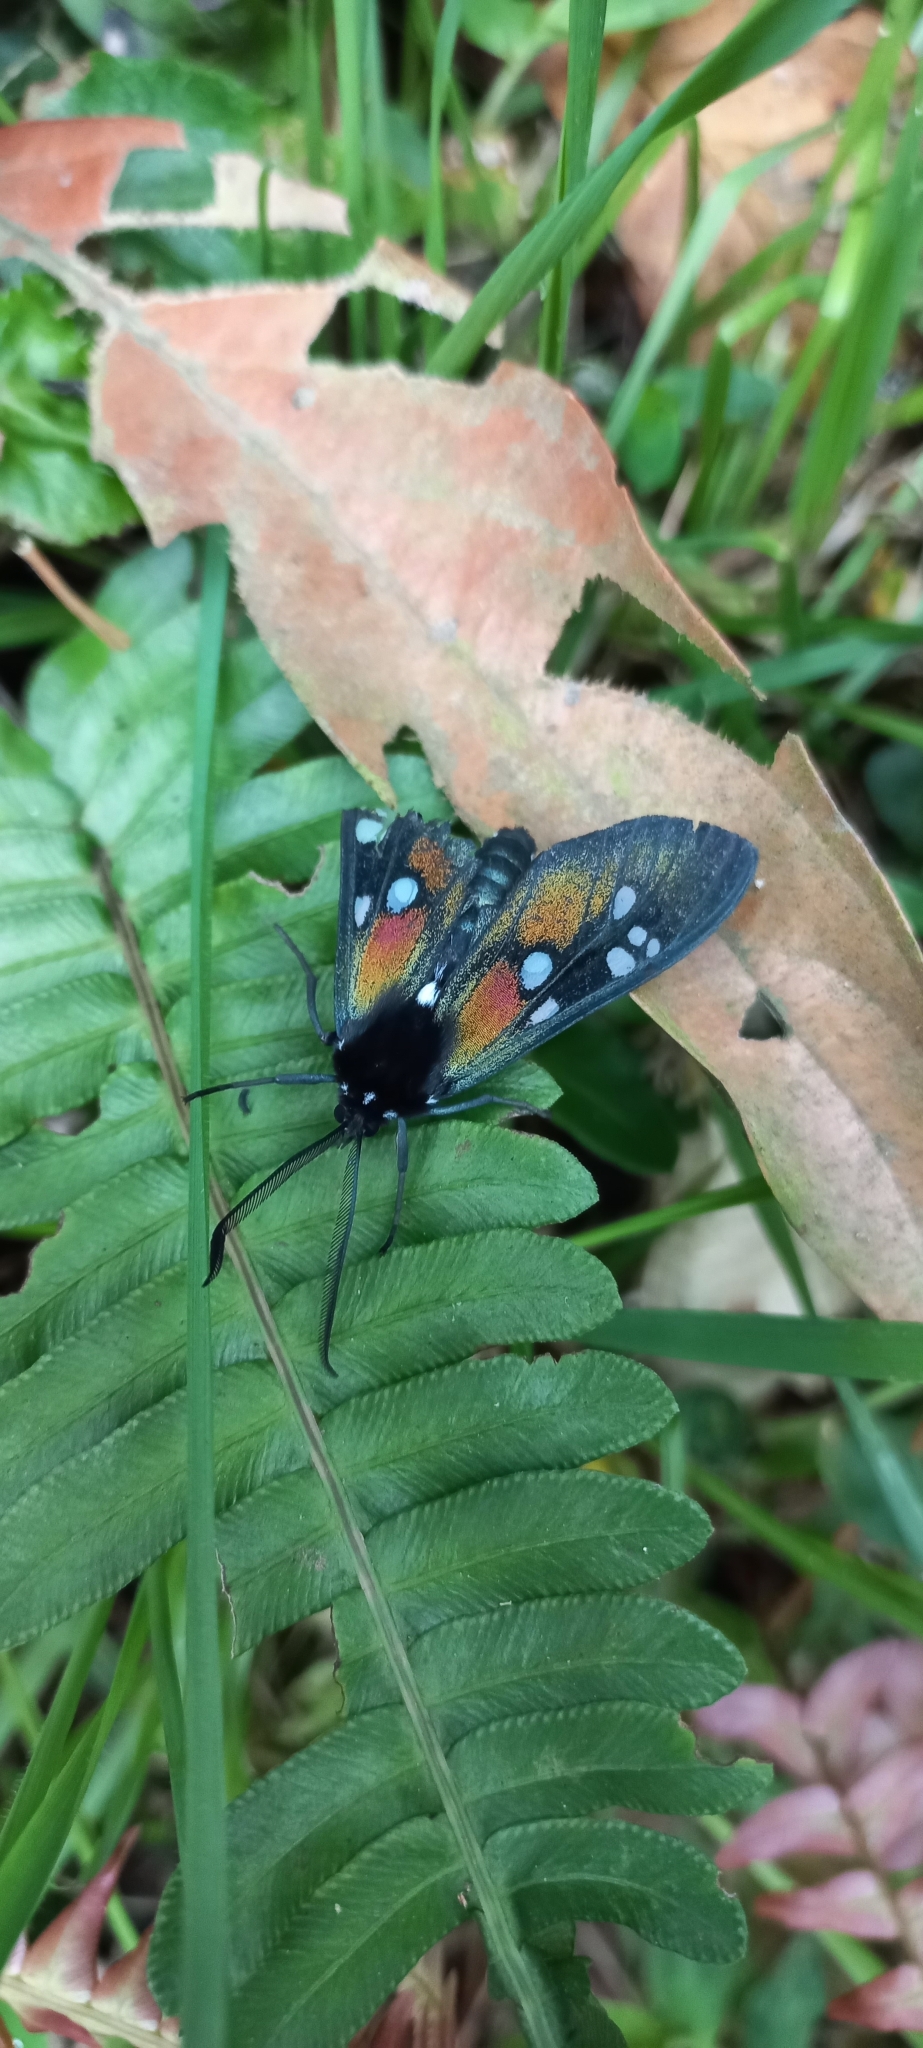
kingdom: Animalia
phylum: Arthropoda
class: Insecta
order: Lepidoptera
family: Erebidae
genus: Chrysocale
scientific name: Chrysocale gigantea
